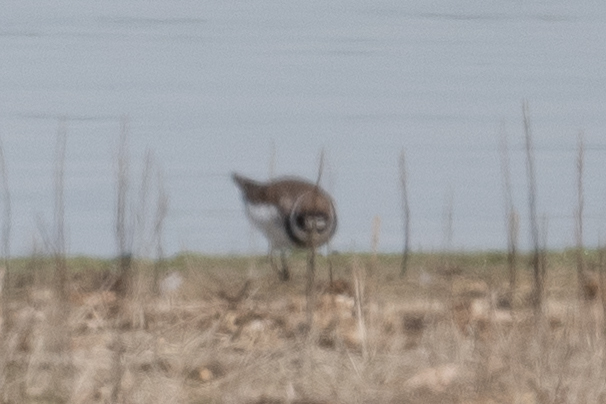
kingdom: Animalia
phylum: Chordata
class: Aves
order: Charadriiformes
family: Charadriidae
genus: Charadrius
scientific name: Charadrius semipalmatus
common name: Semipalmated plover
